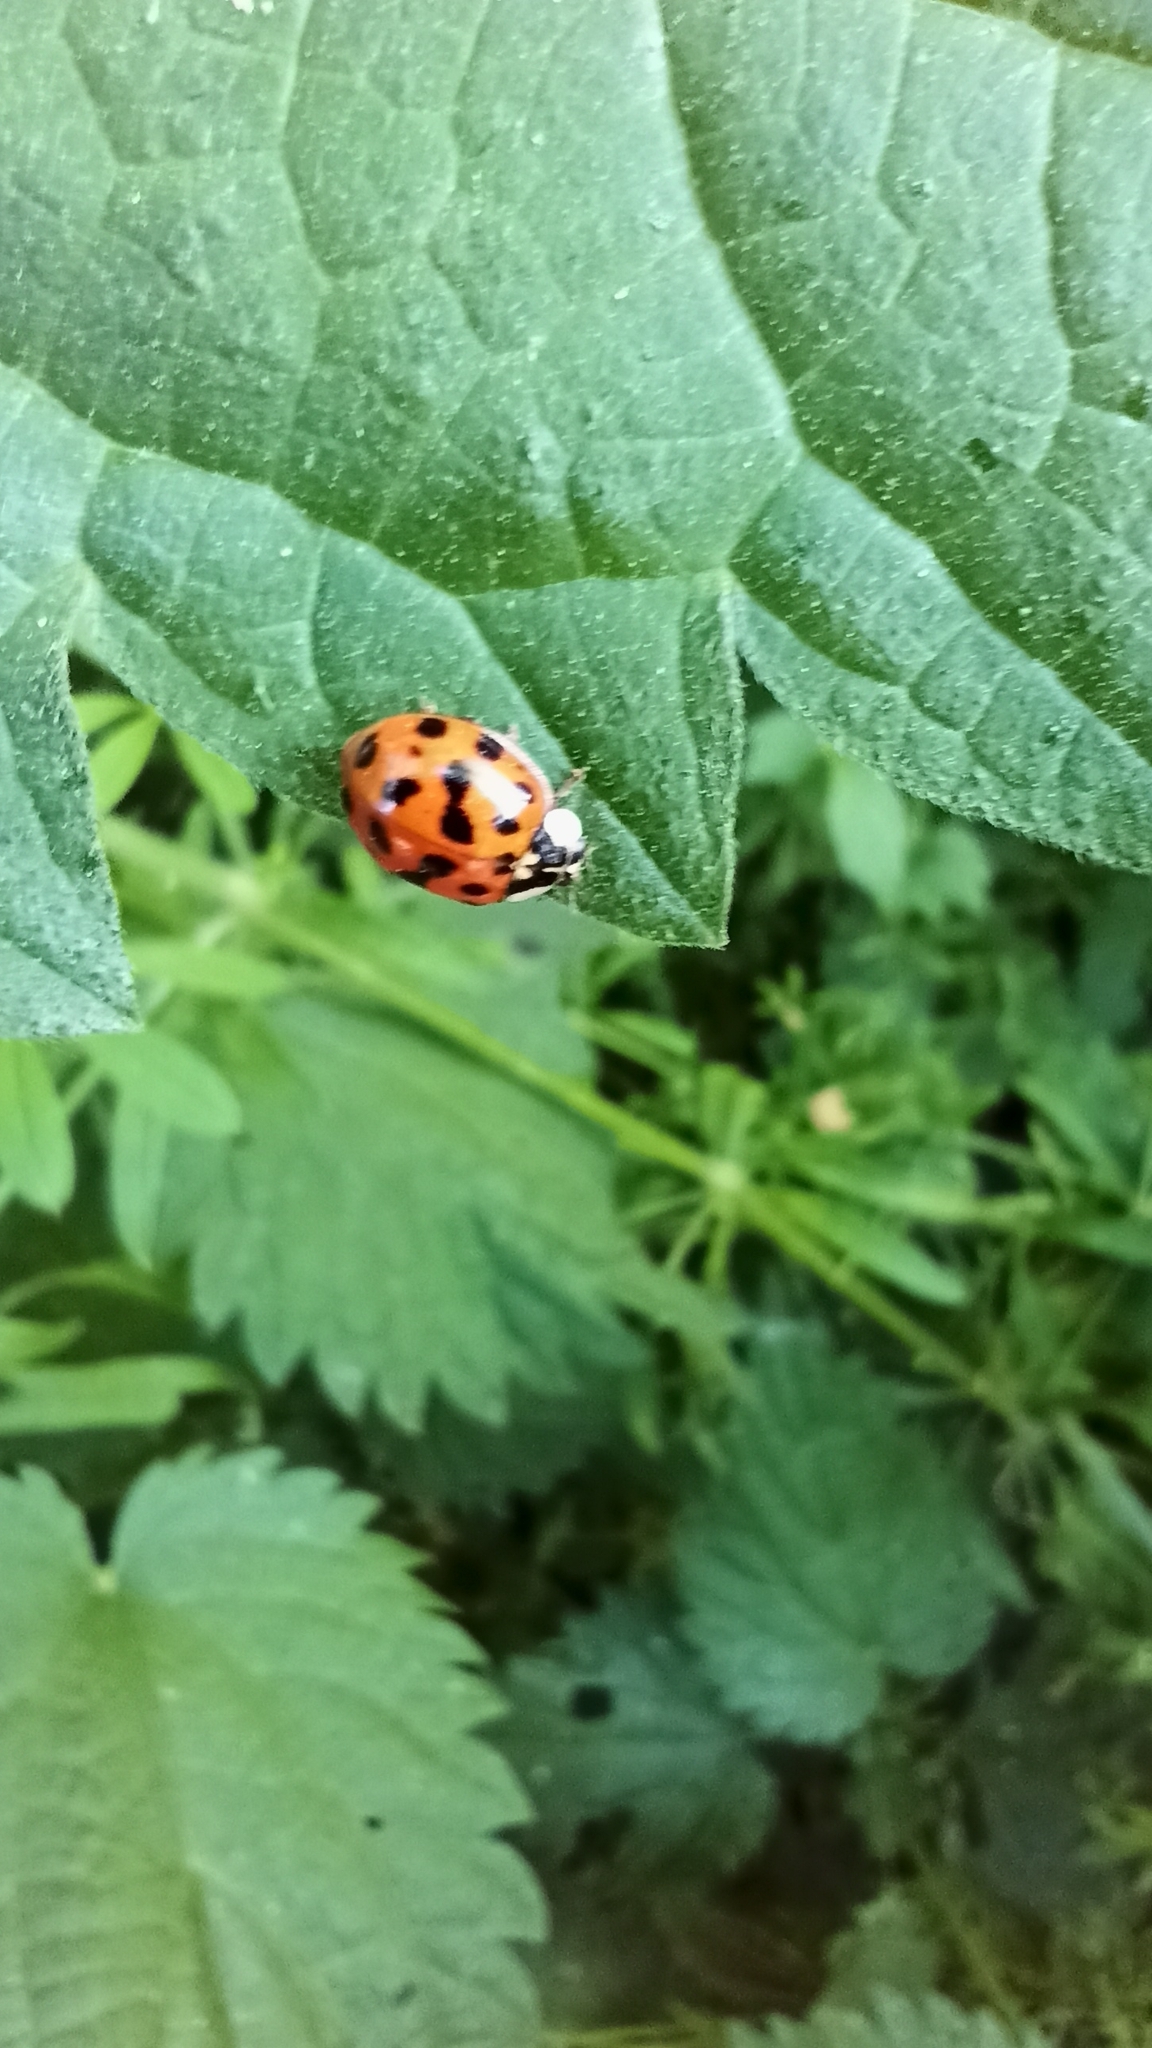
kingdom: Animalia
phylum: Arthropoda
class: Insecta
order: Coleoptera
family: Coccinellidae
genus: Harmonia
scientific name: Harmonia axyridis
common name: Harlequin ladybird
